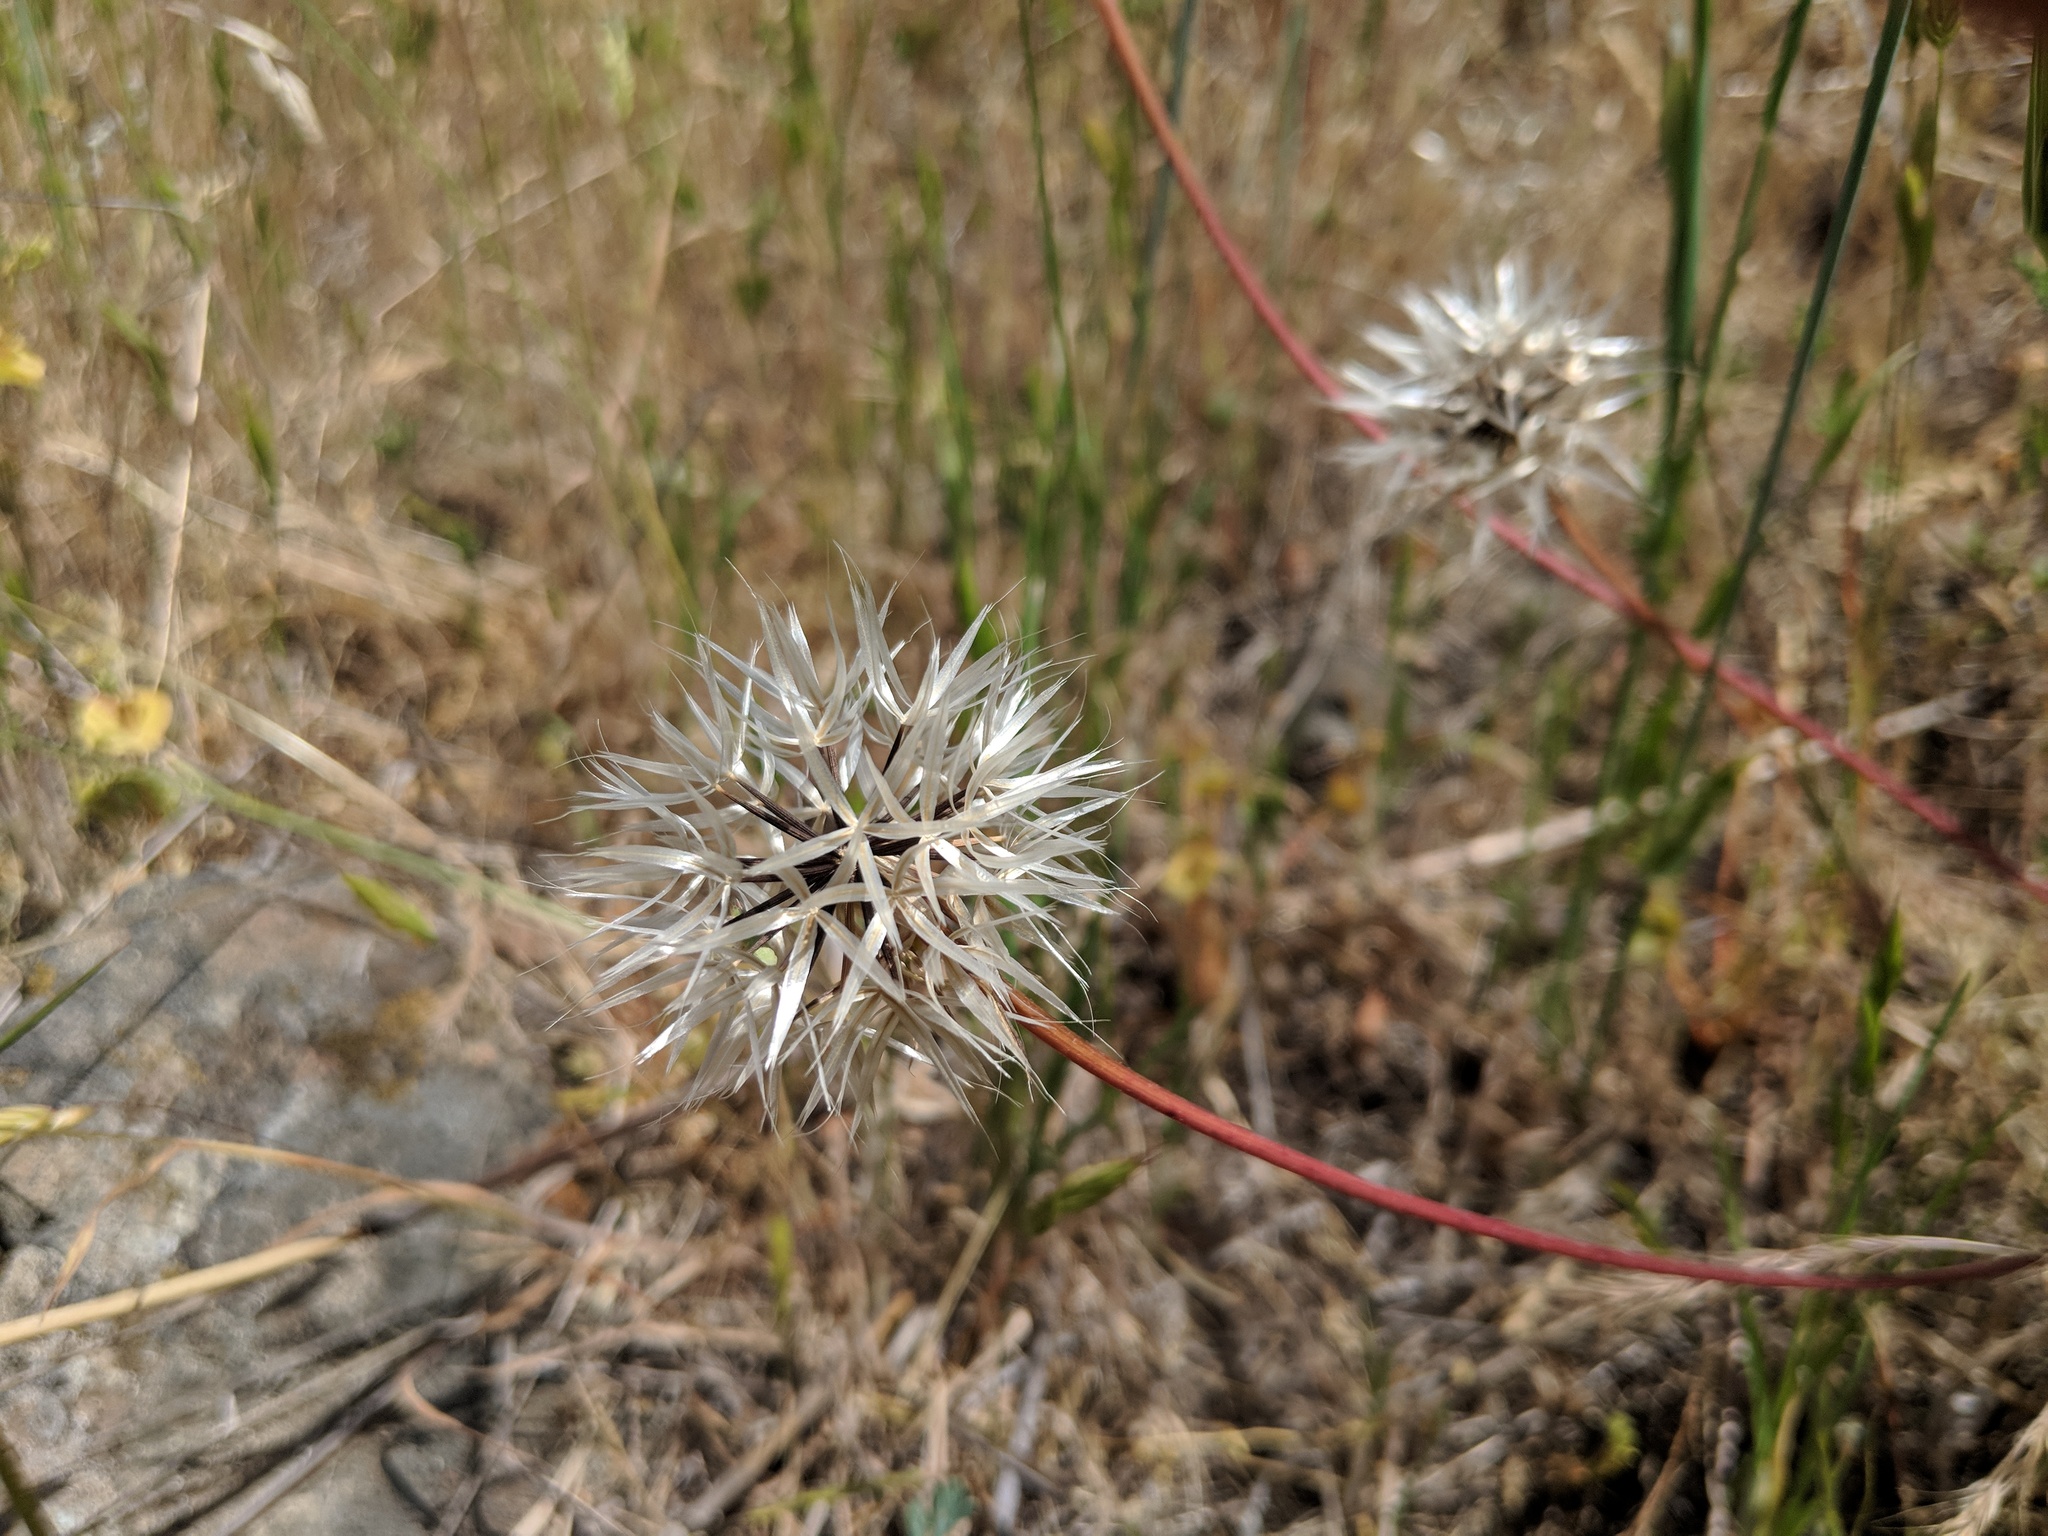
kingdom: Plantae
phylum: Tracheophyta
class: Magnoliopsida
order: Asterales
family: Asteraceae
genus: Microseris
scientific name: Microseris lindleyi
